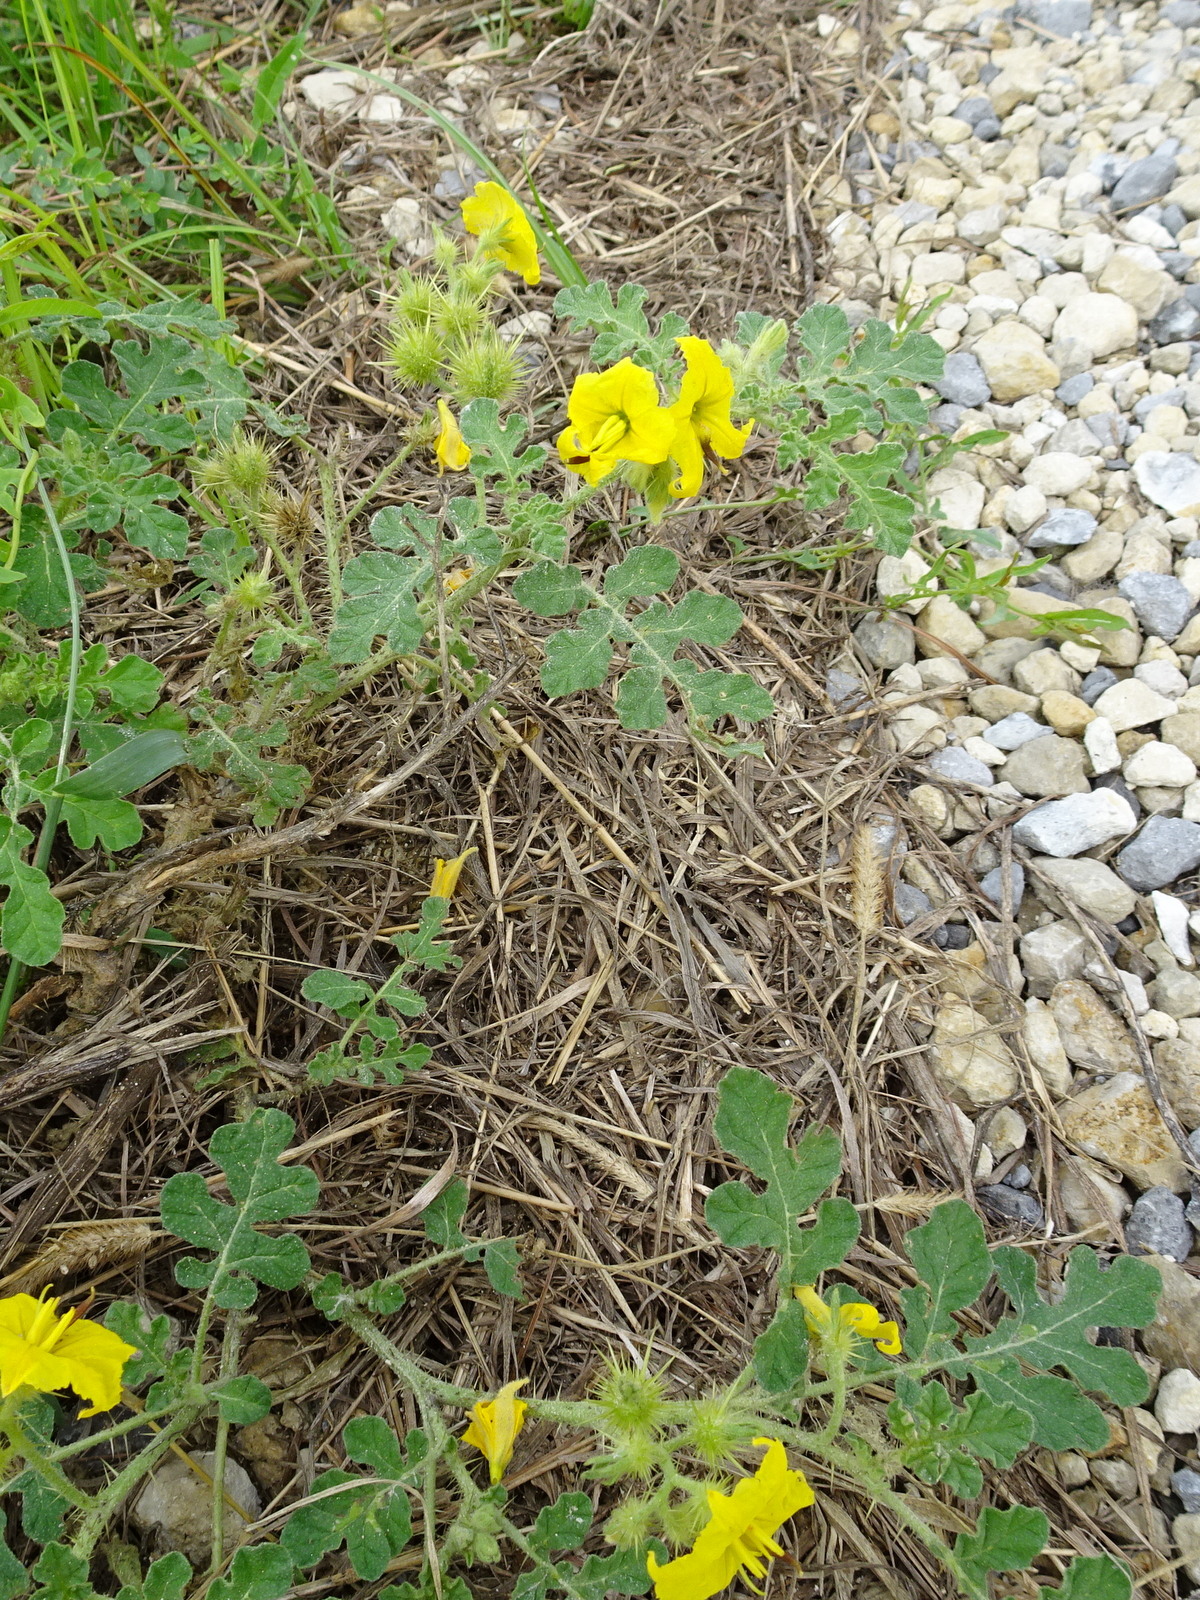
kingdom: Plantae
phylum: Tracheophyta
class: Magnoliopsida
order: Solanales
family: Solanaceae
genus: Solanum
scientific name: Solanum angustifolium
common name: Buffalobur nightshade
